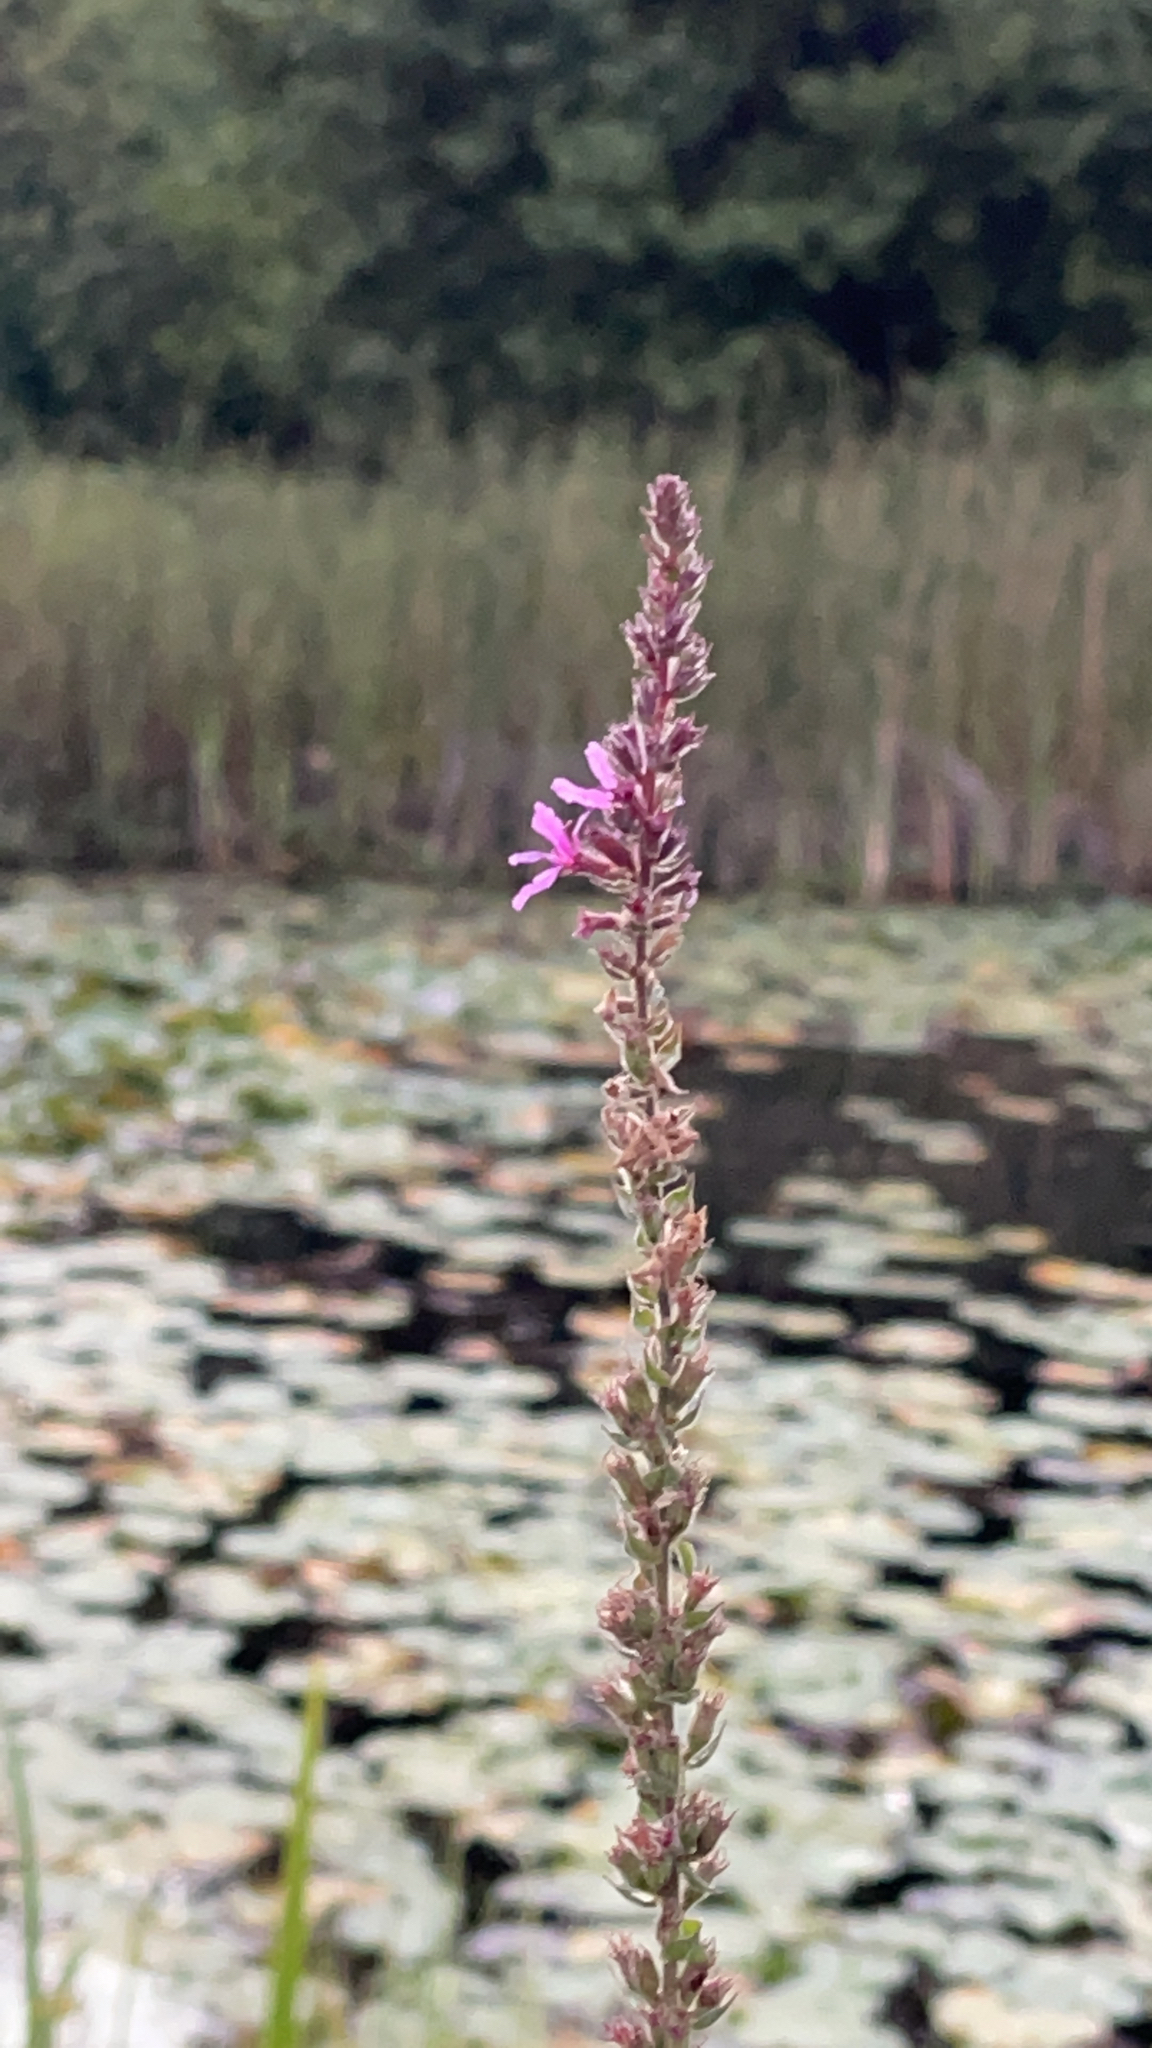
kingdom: Plantae
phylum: Tracheophyta
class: Magnoliopsida
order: Myrtales
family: Lythraceae
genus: Lythrum
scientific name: Lythrum salicaria
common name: Purple loosestrife
